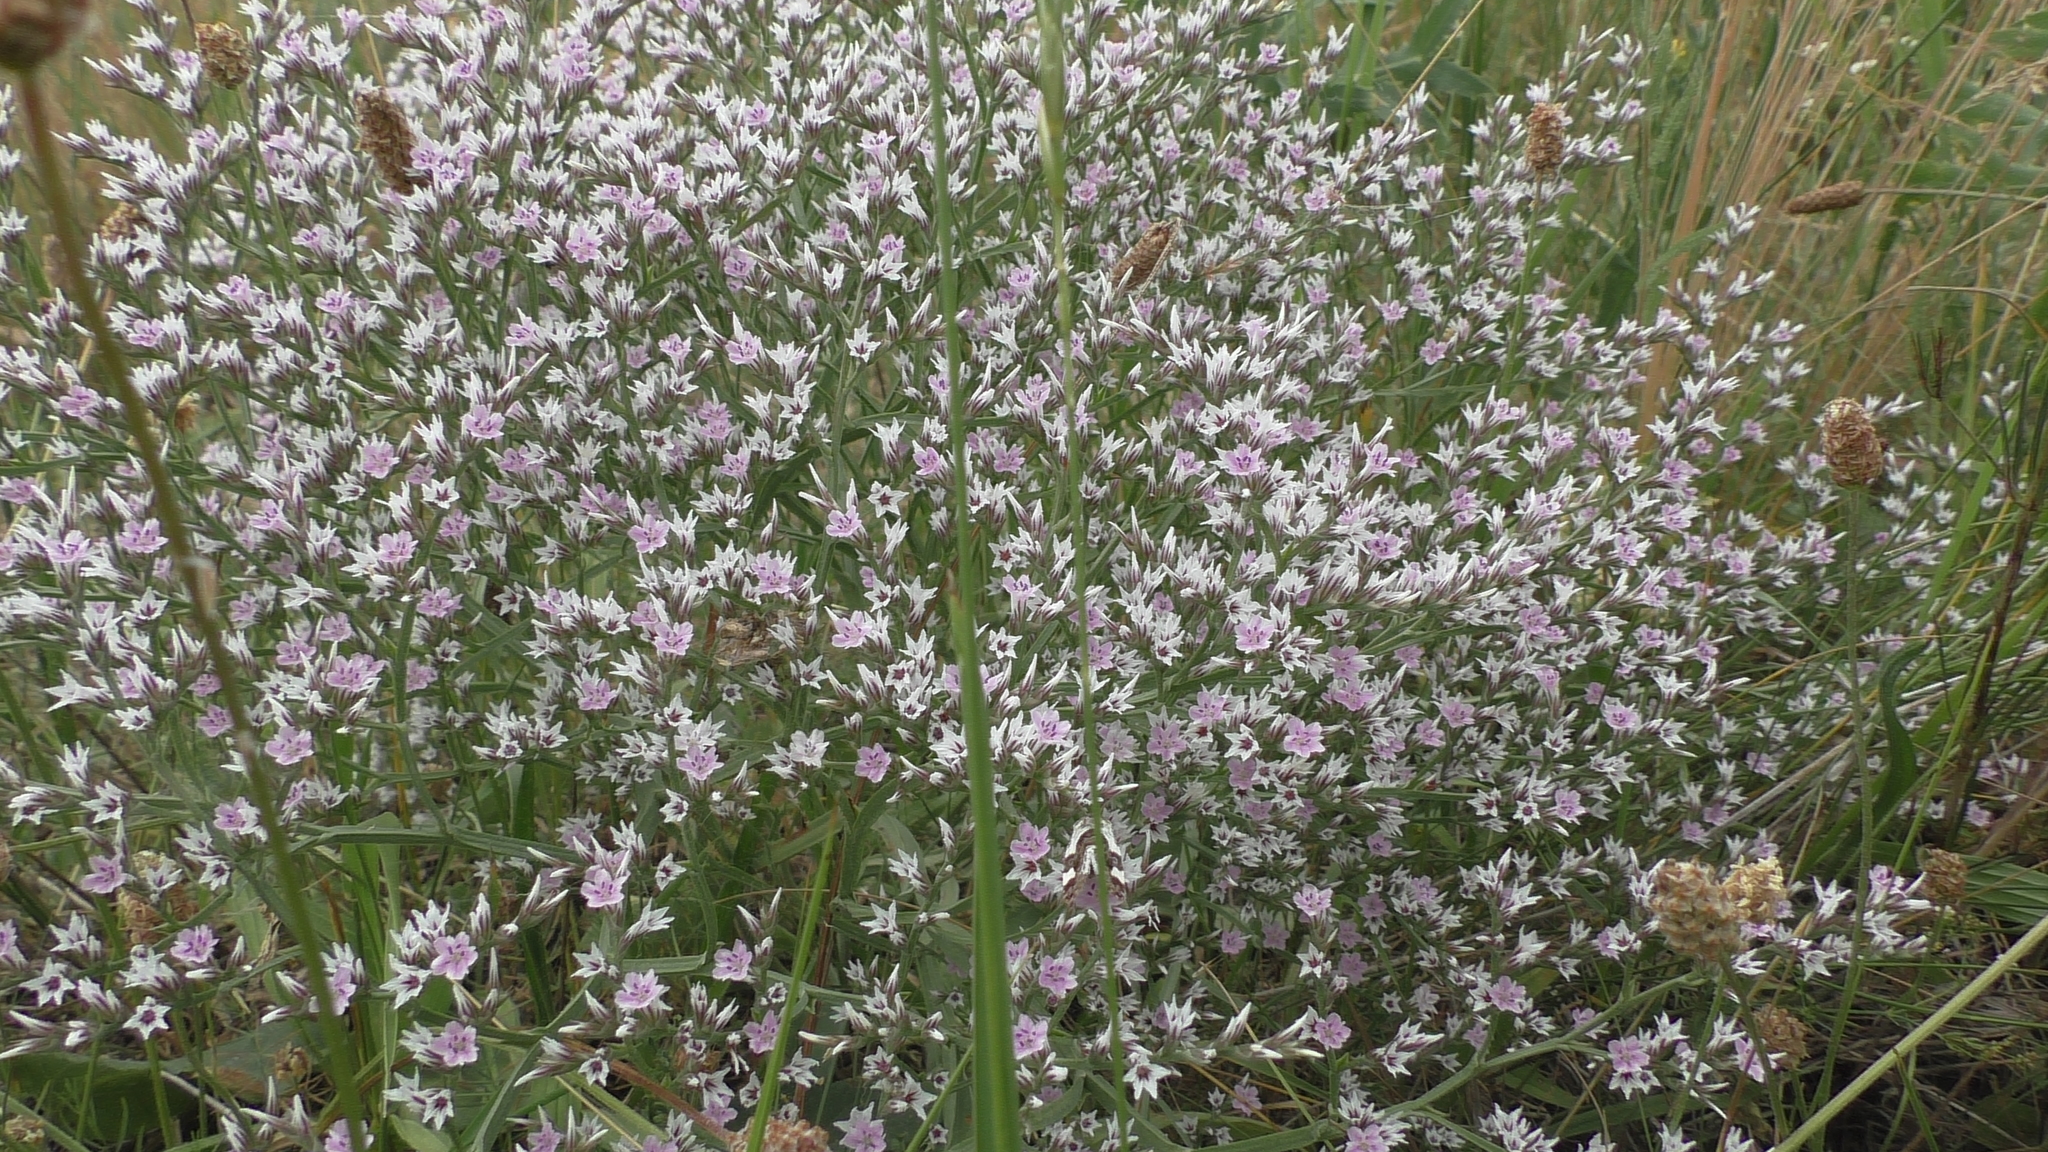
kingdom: Plantae
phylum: Tracheophyta
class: Magnoliopsida
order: Caryophyllales
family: Plumbaginaceae
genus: Goniolimon
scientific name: Goniolimon tataricum
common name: Statice
